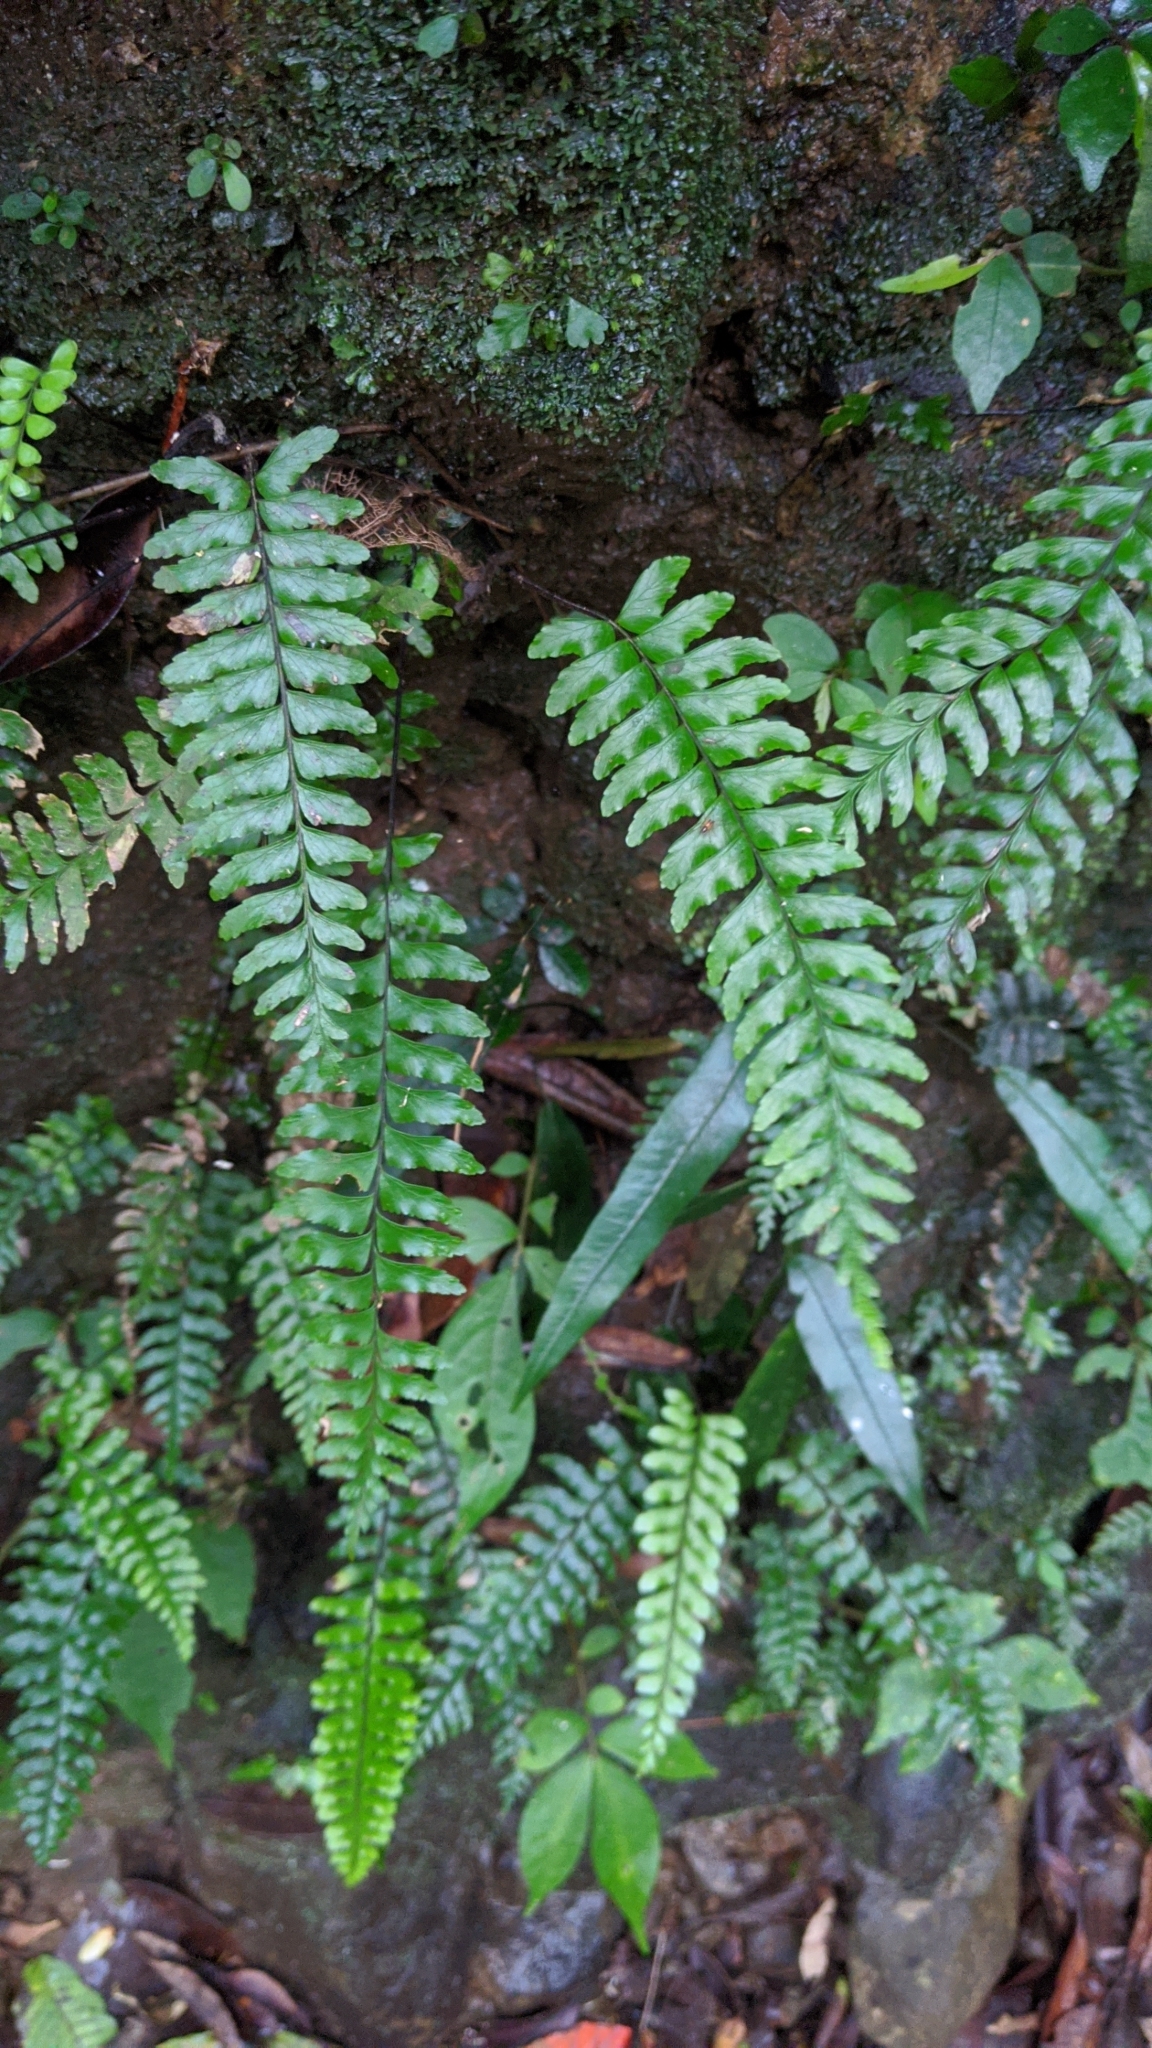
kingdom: Plantae
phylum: Tracheophyta
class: Polypodiopsida
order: Polypodiales
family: Aspleniaceae
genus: Hymenasplenium
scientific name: Hymenasplenium unilaterale
